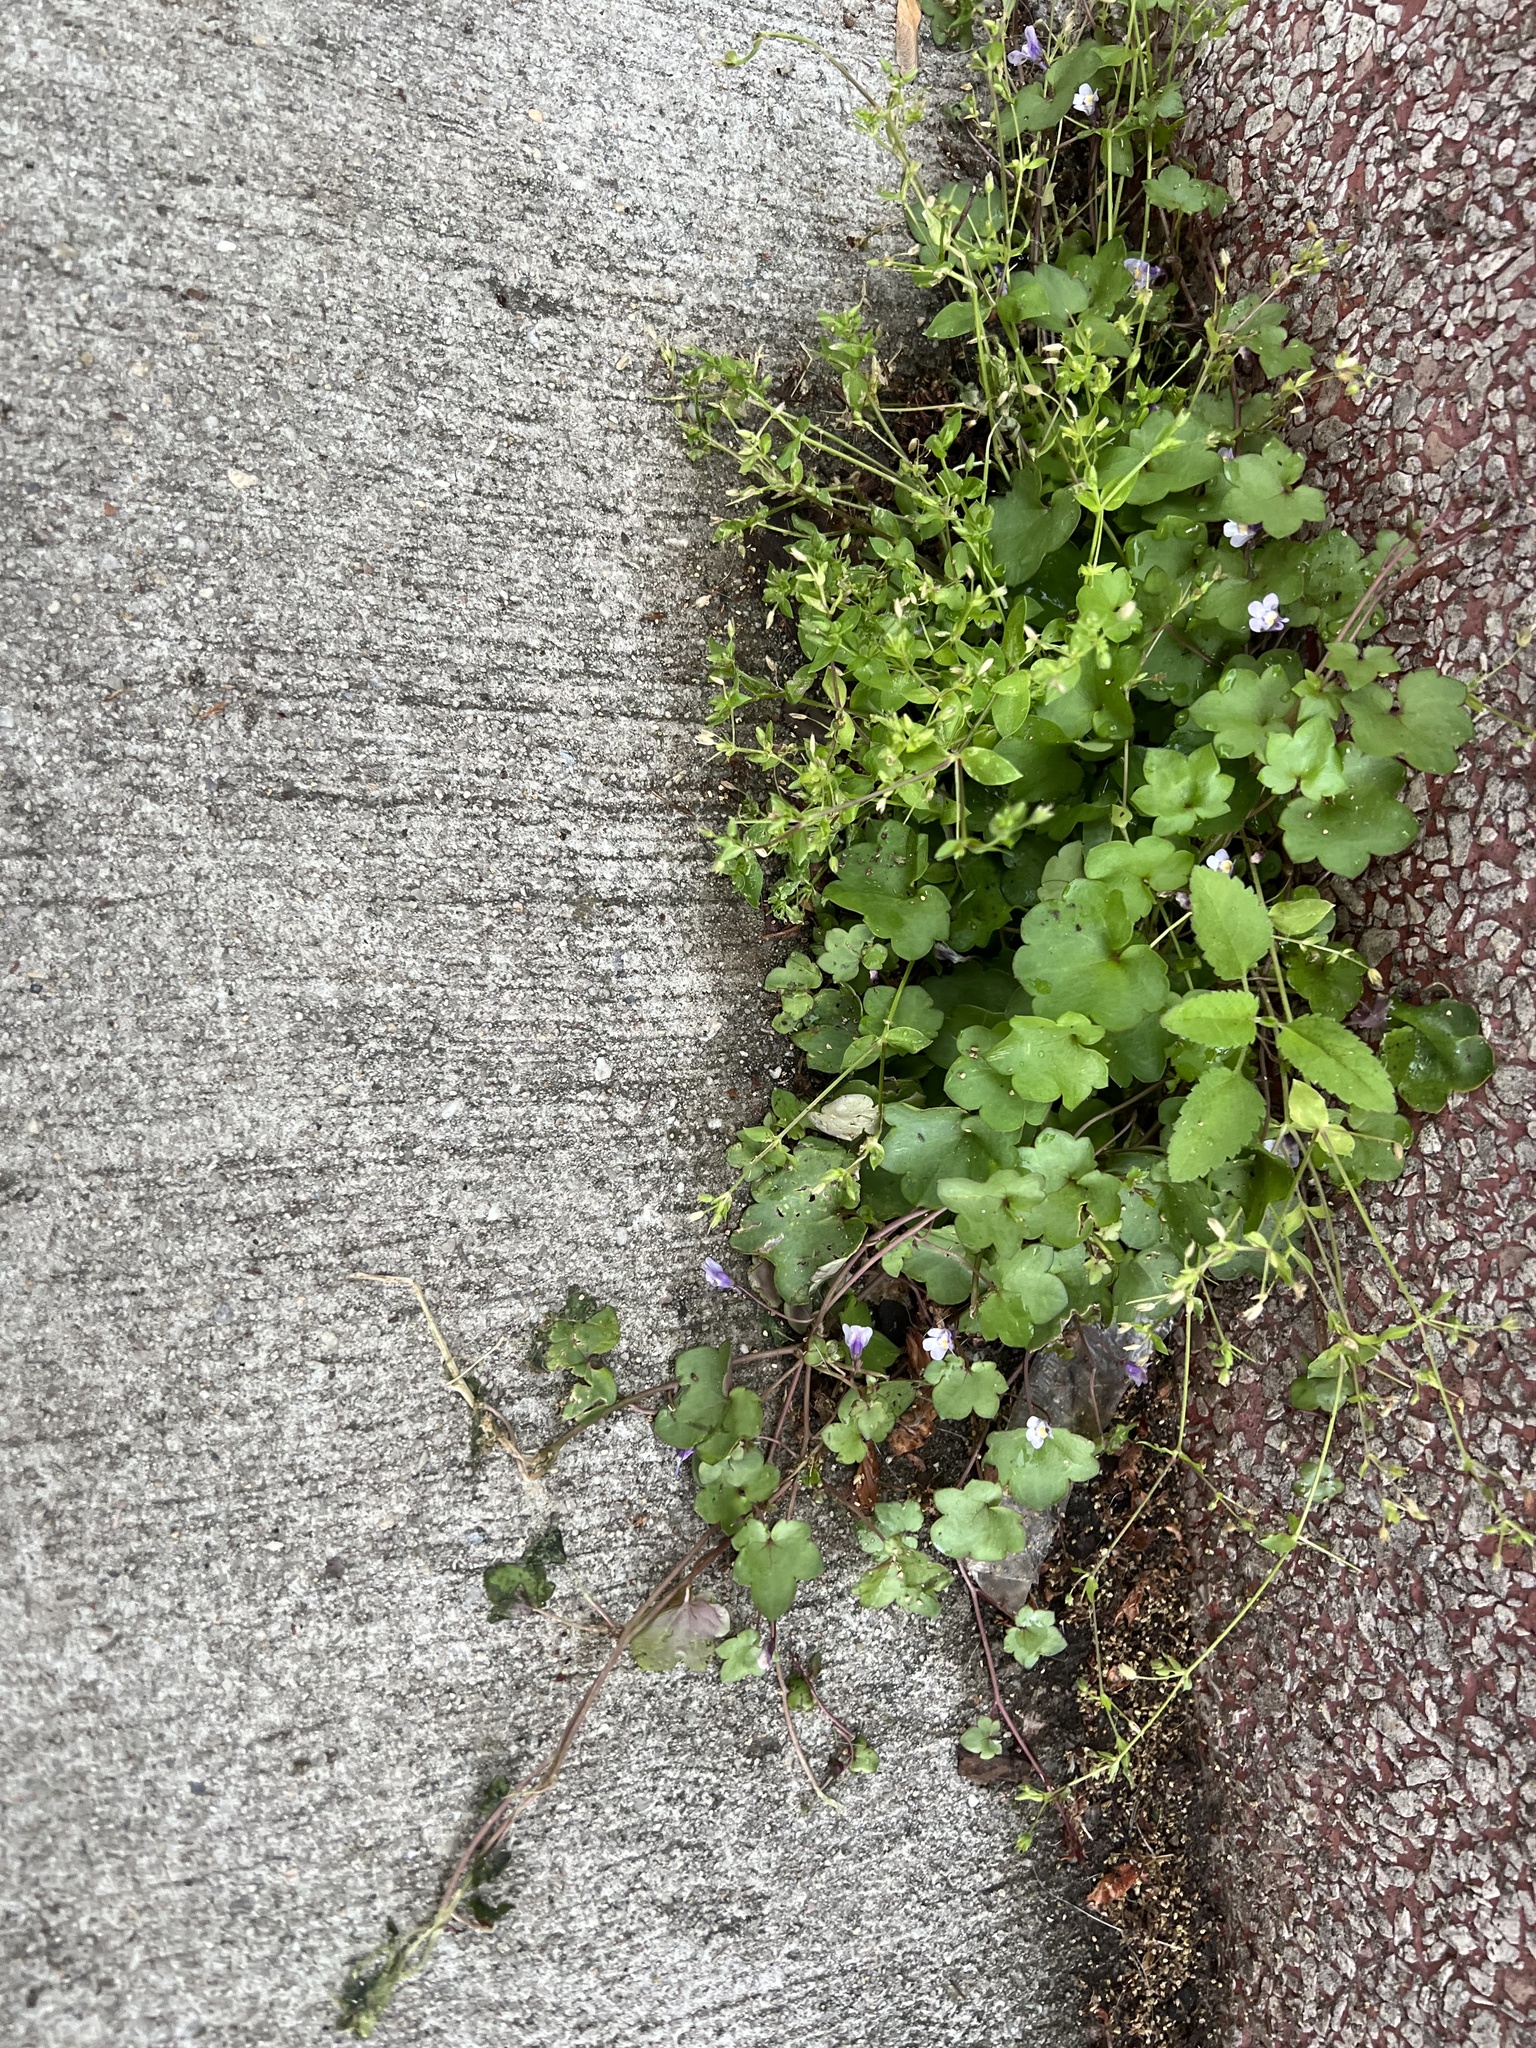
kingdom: Plantae
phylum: Tracheophyta
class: Magnoliopsida
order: Lamiales
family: Plantaginaceae
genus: Cymbalaria
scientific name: Cymbalaria muralis
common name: Ivy-leaved toadflax
